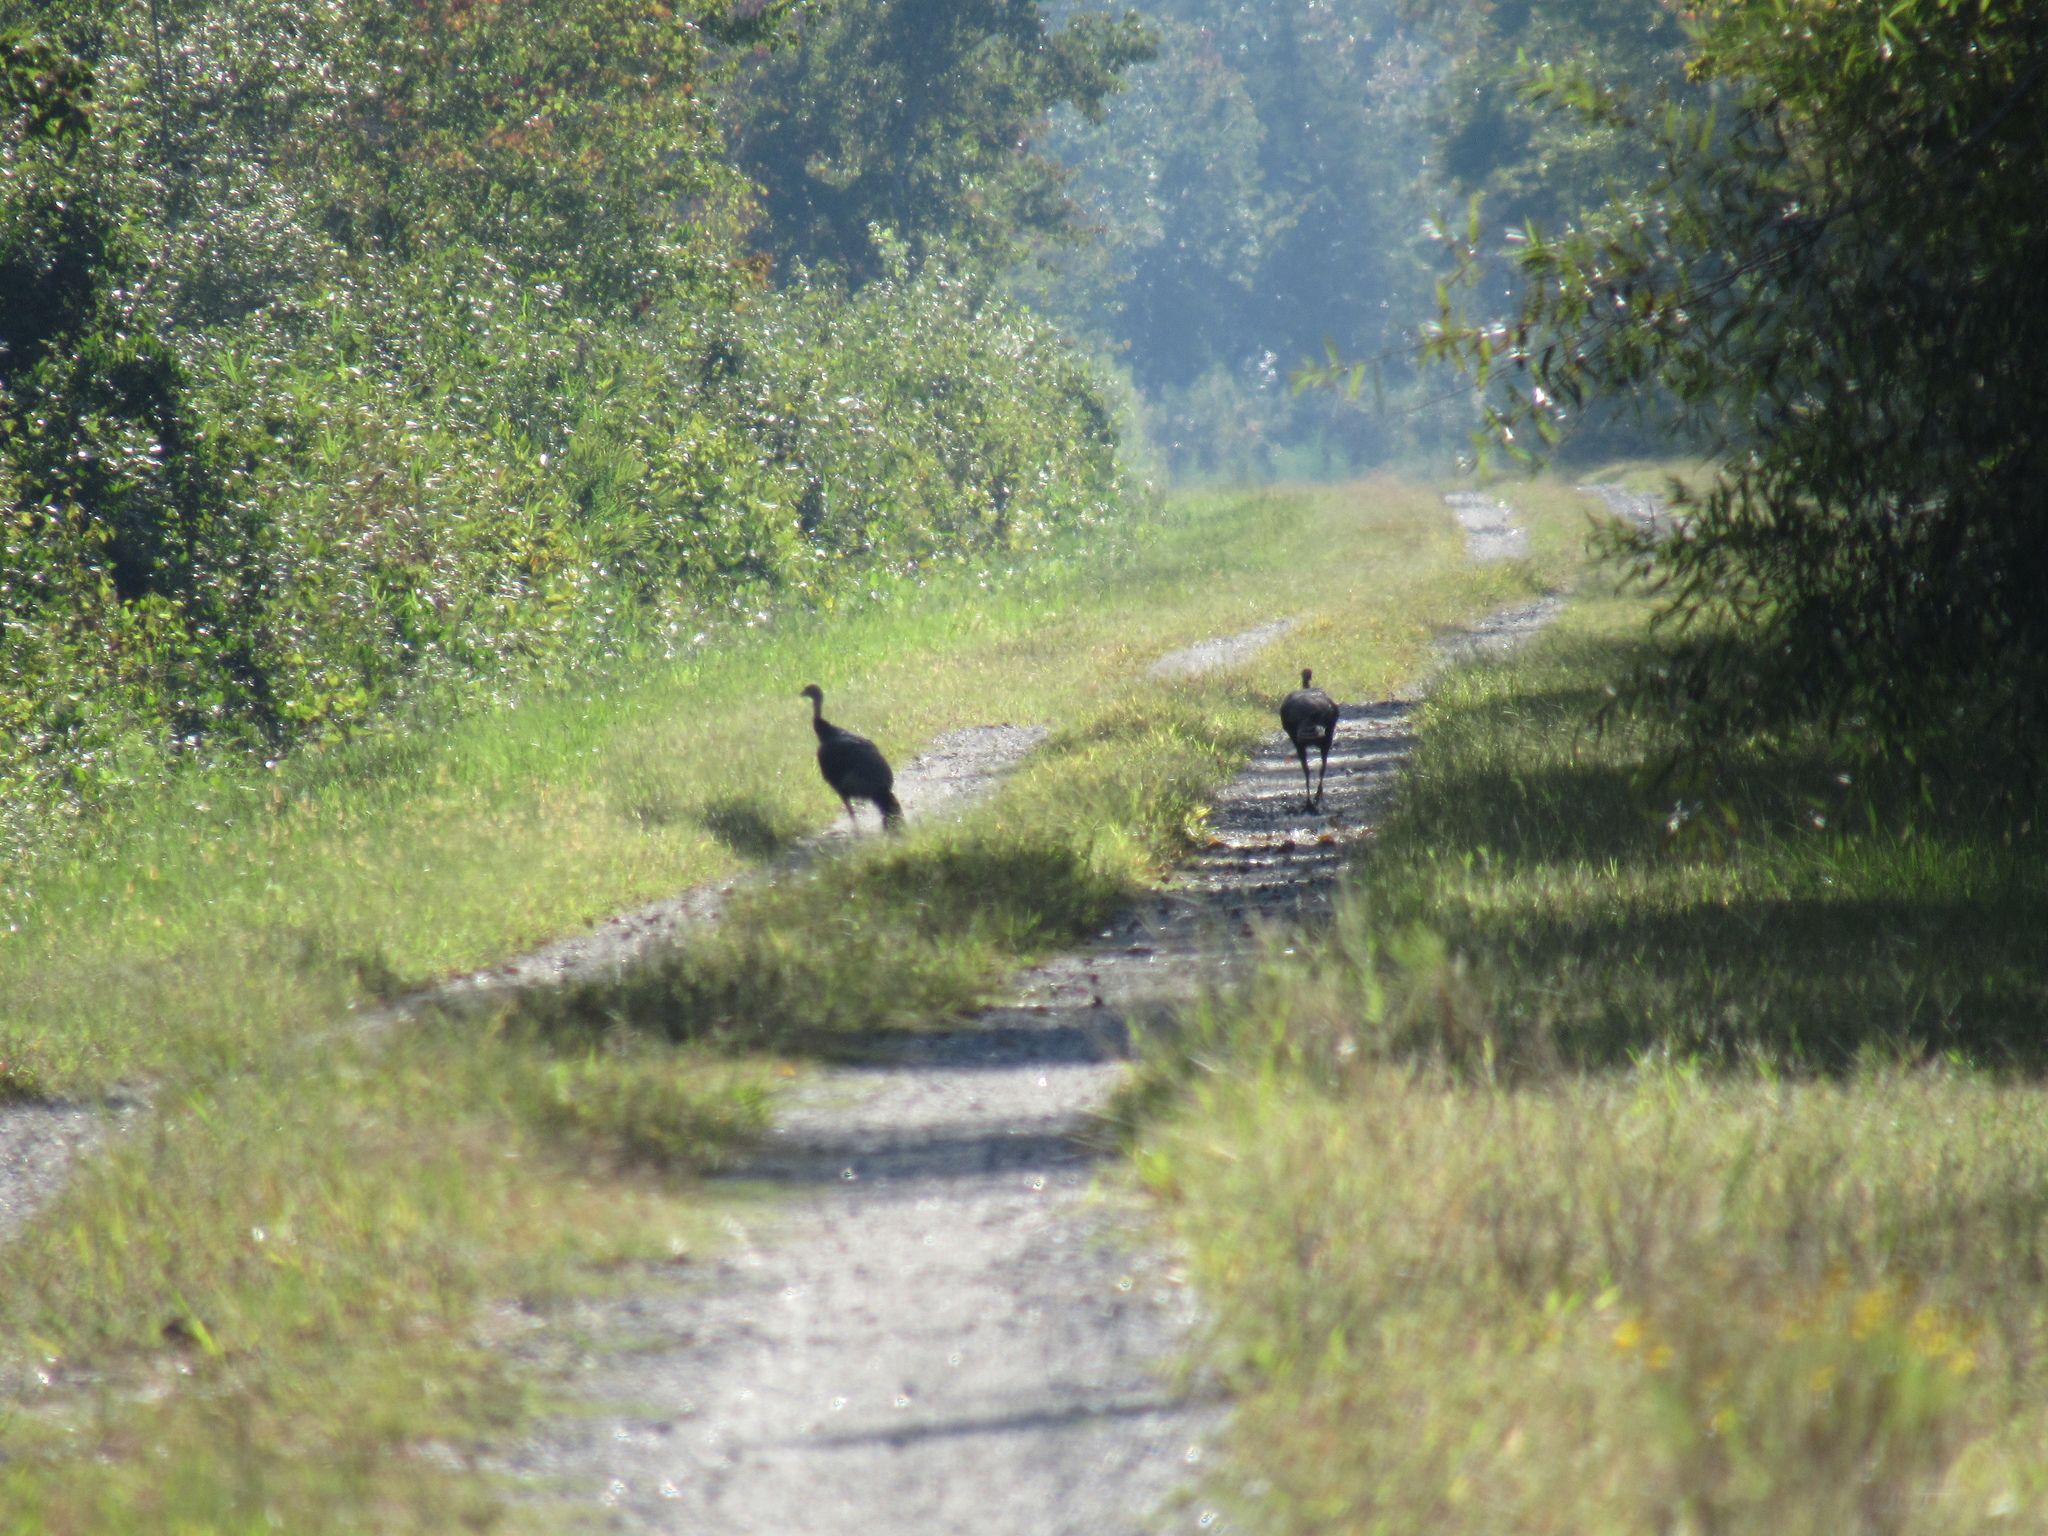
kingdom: Animalia
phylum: Chordata
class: Aves
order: Galliformes
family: Phasianidae
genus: Meleagris
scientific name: Meleagris gallopavo
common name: Wild turkey
